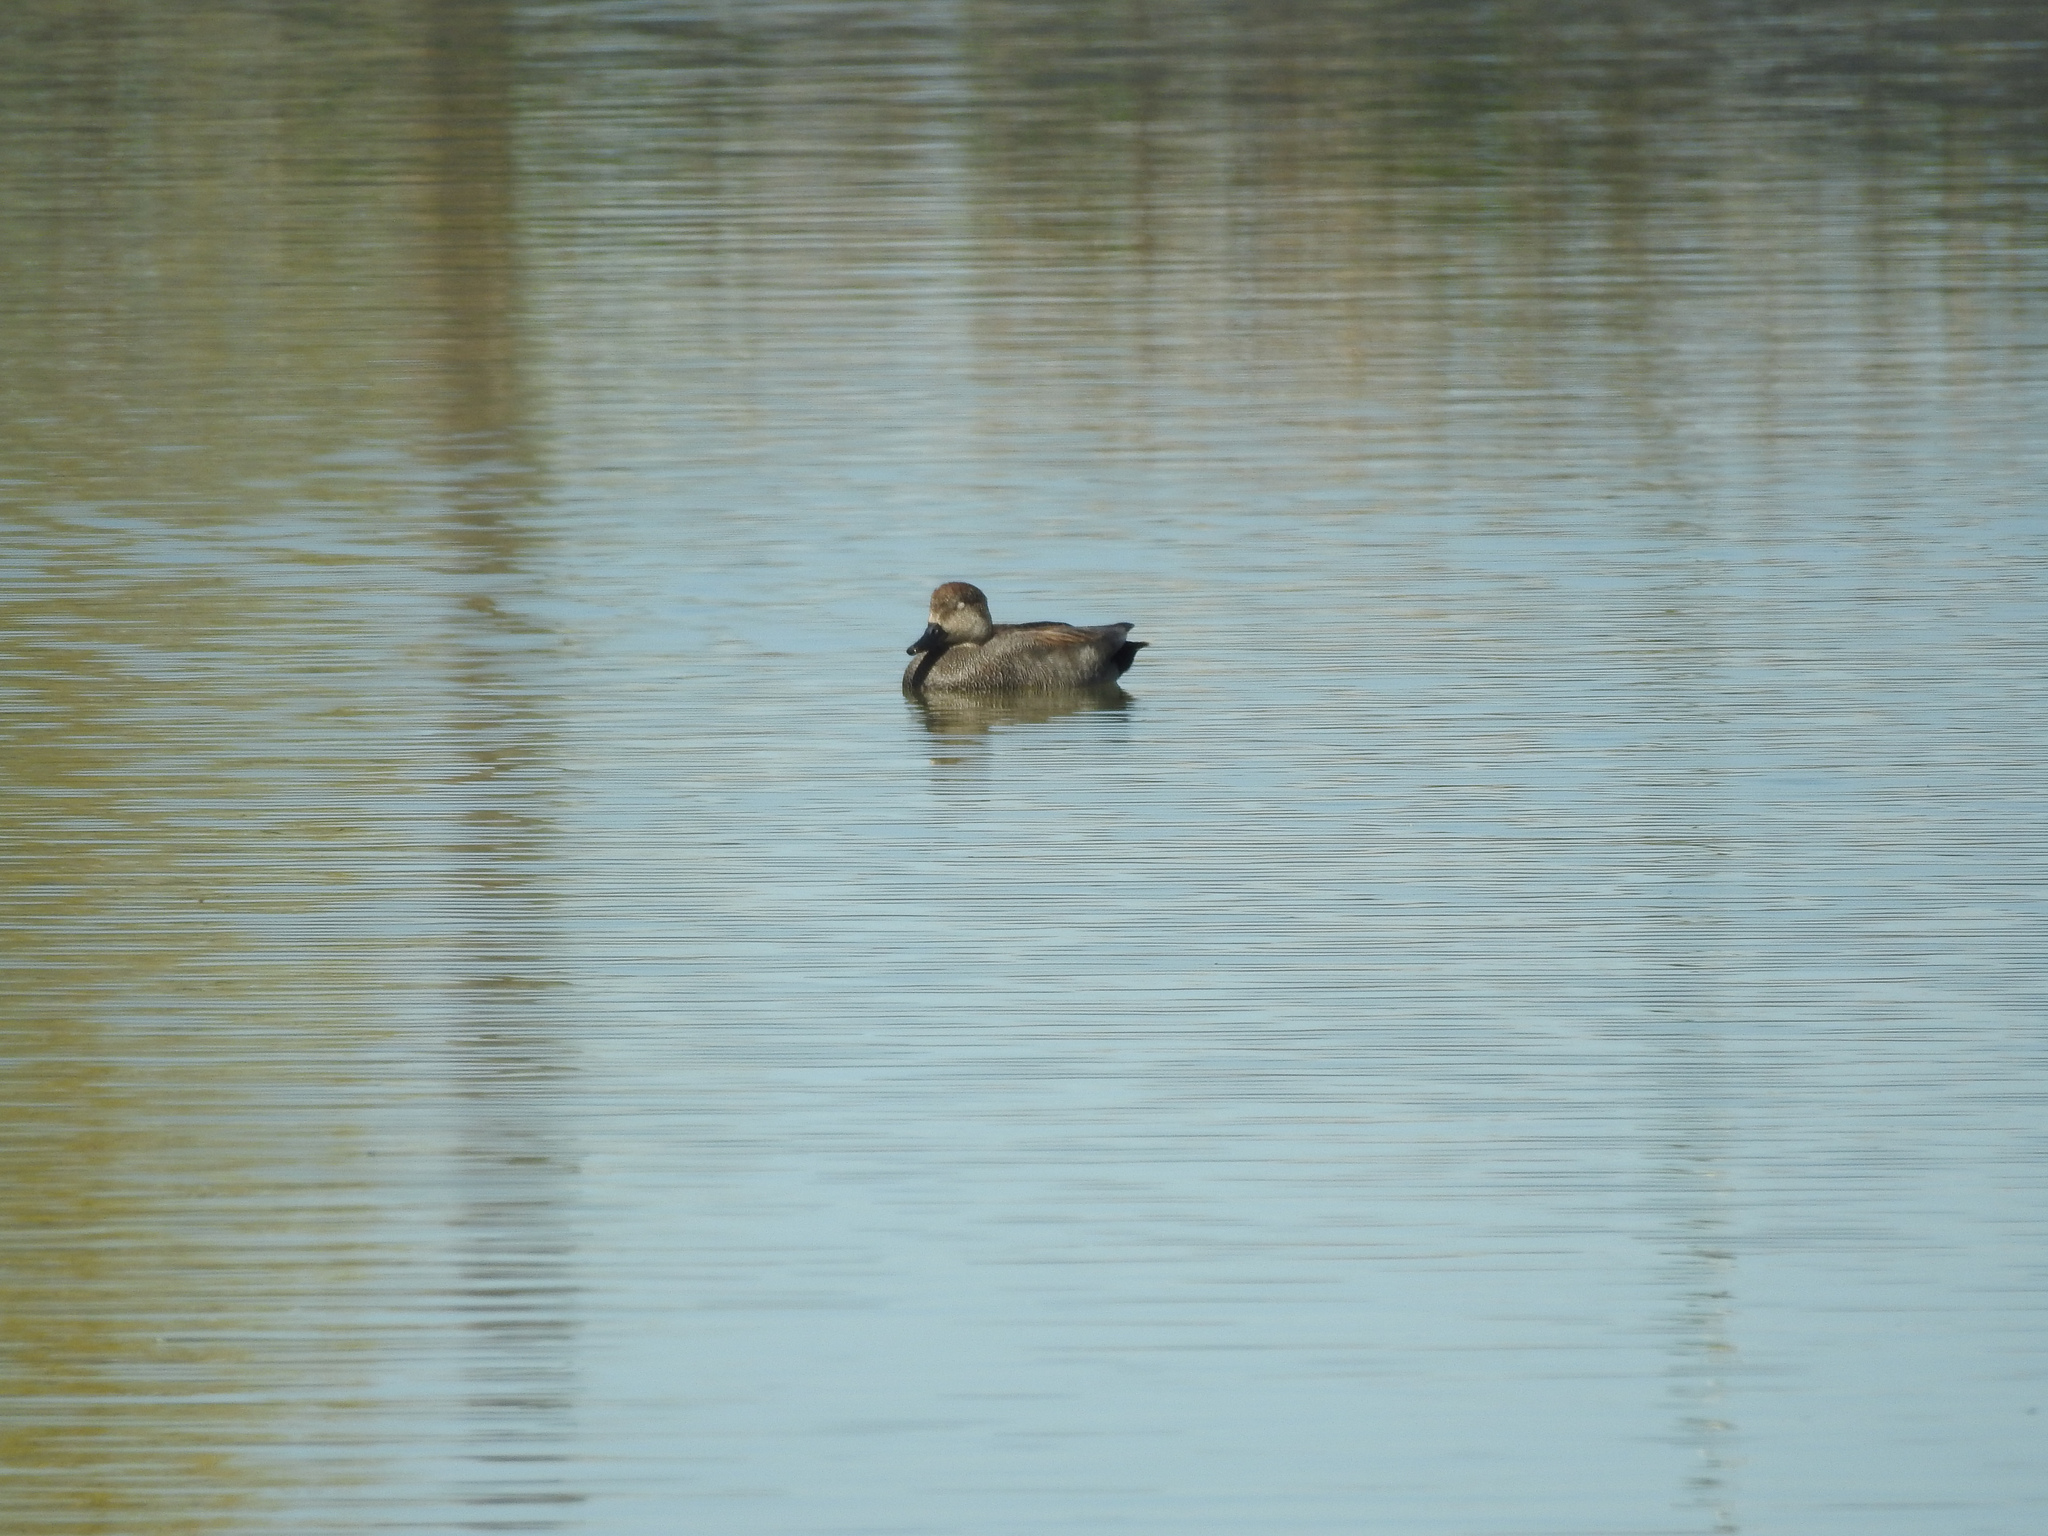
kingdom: Animalia
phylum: Chordata
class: Aves
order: Anseriformes
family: Anatidae
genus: Mareca
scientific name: Mareca strepera
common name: Gadwall
